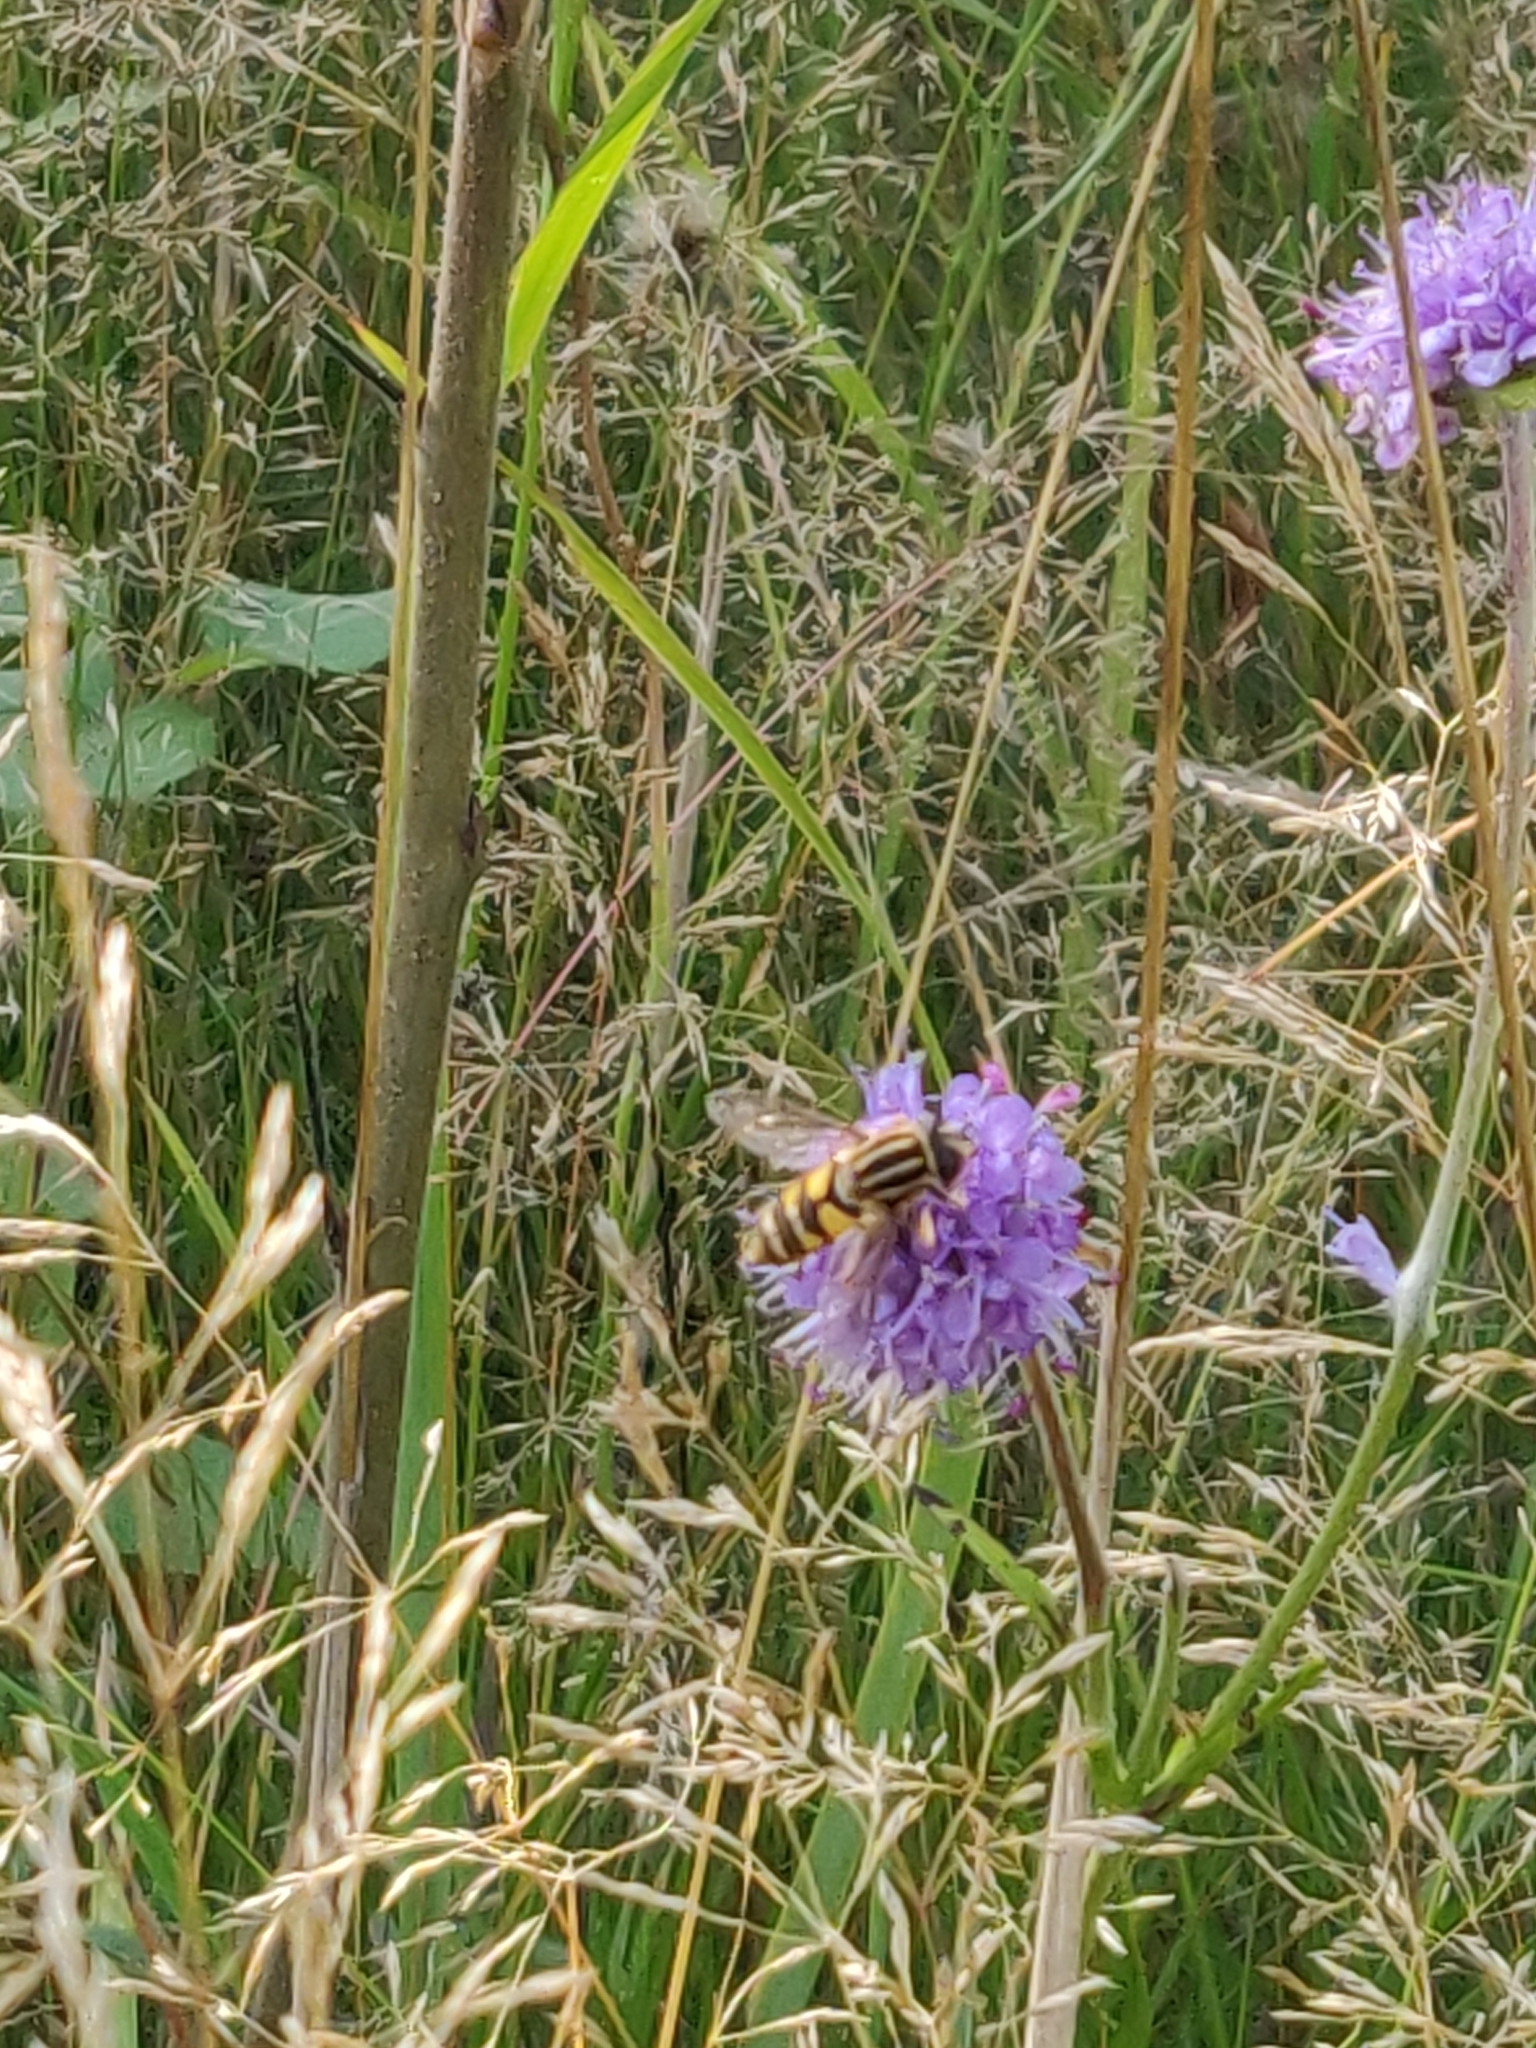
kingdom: Animalia
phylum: Arthropoda
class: Insecta
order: Diptera
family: Syrphidae
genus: Helophilus
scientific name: Helophilus pendulus
